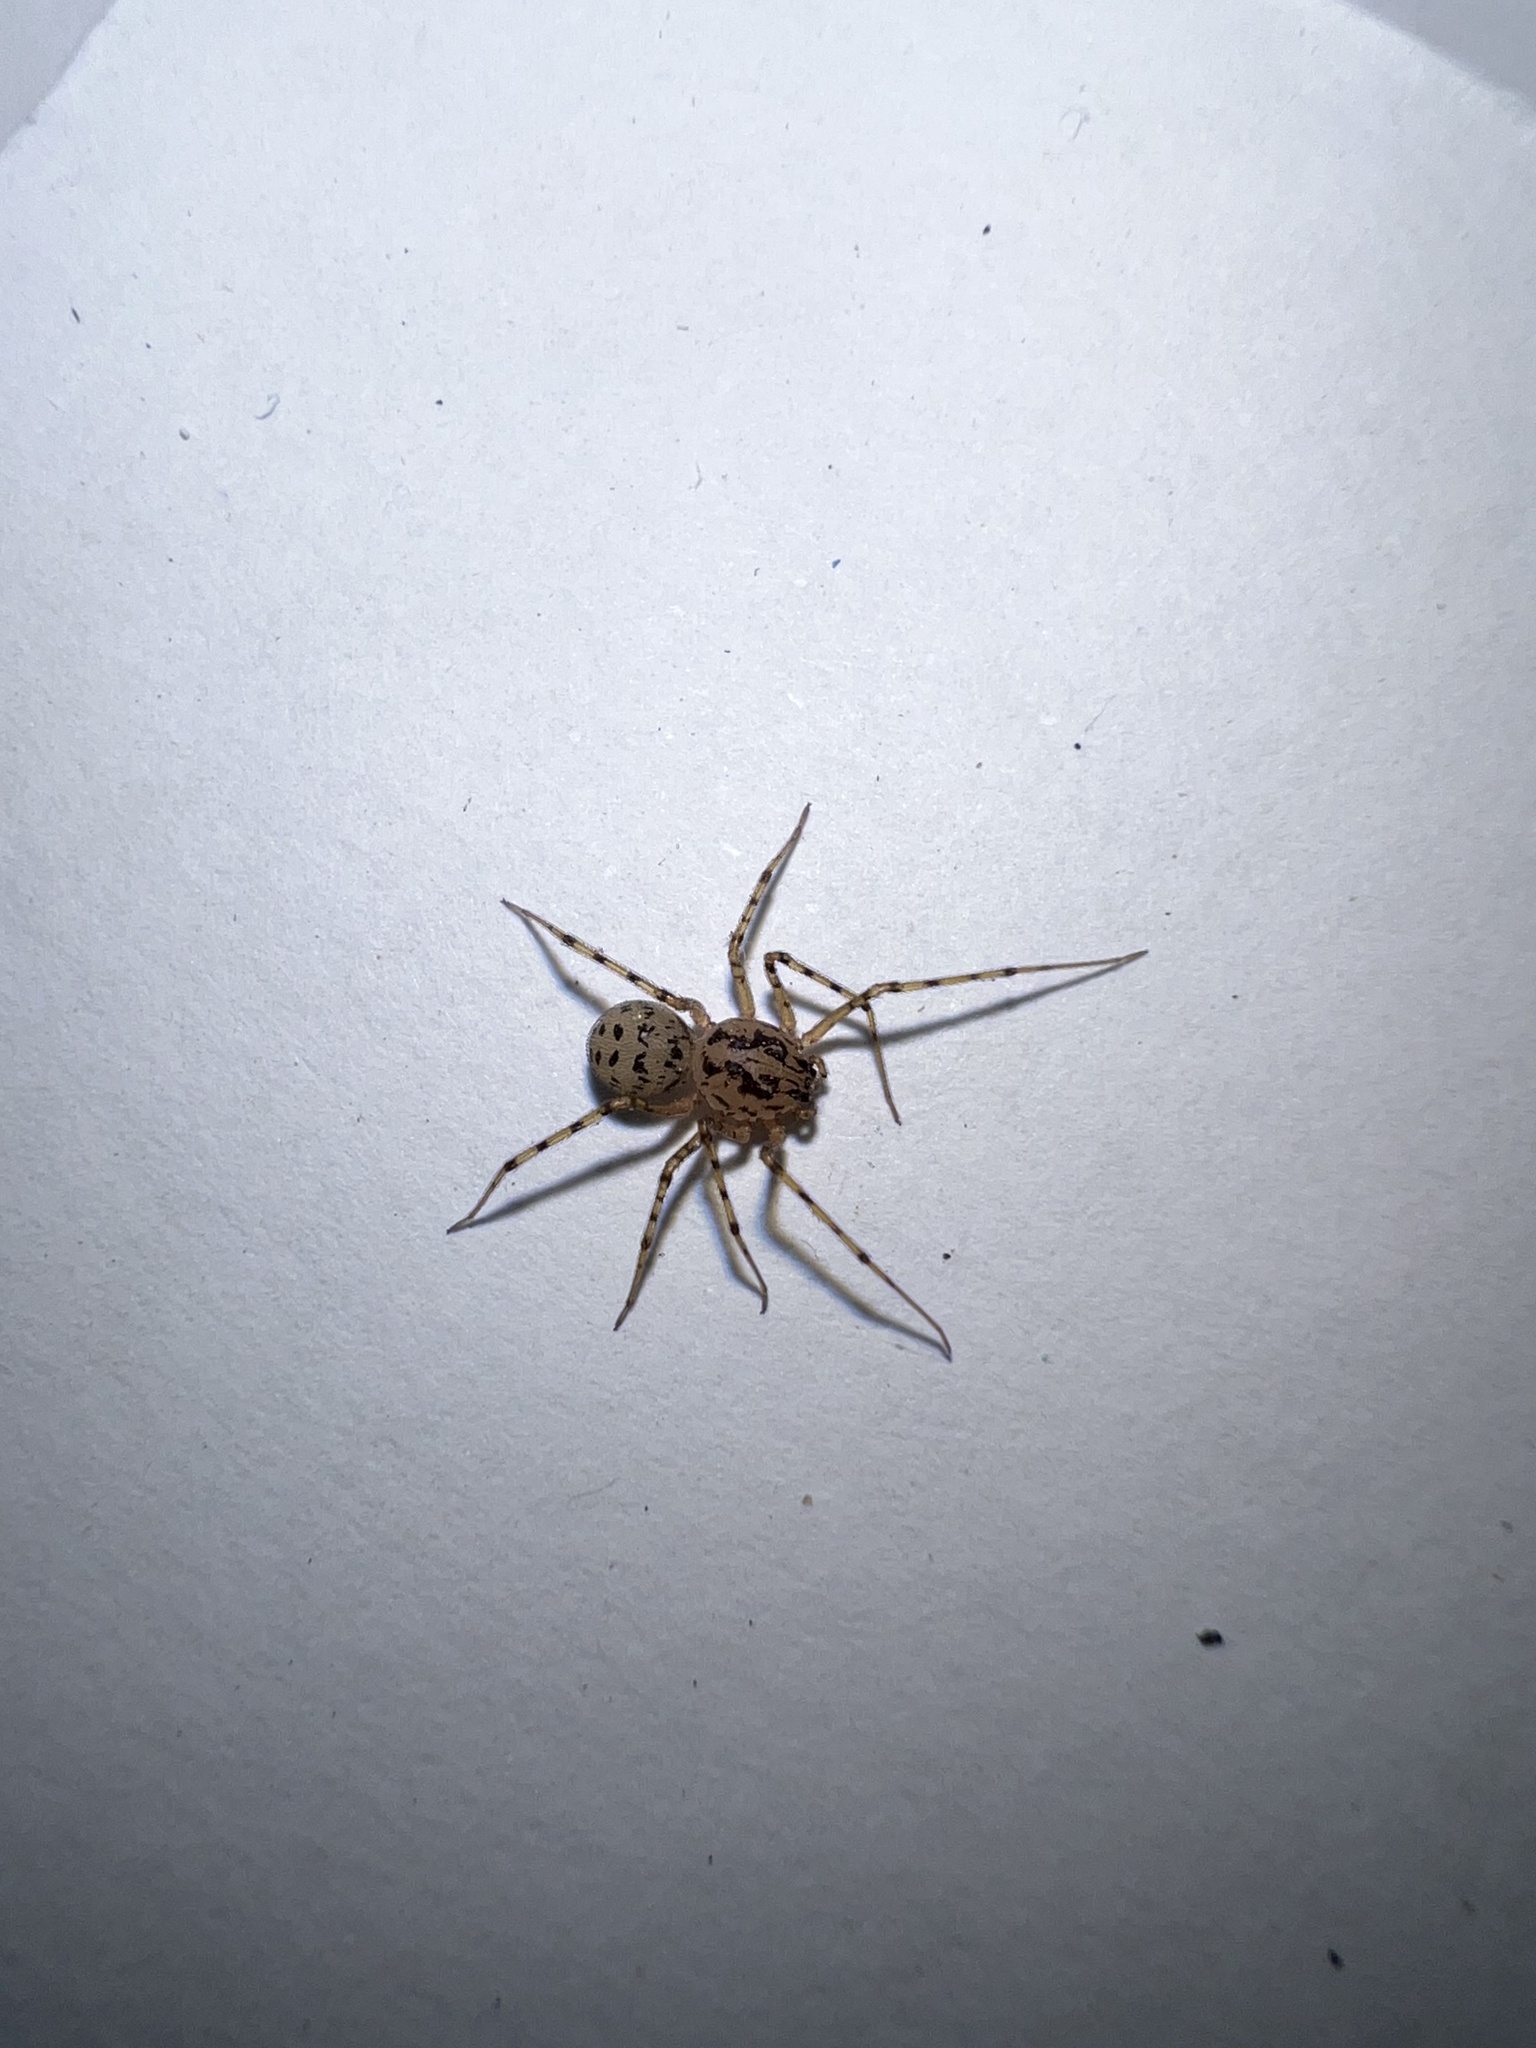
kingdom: Animalia
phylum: Arthropoda
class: Arachnida
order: Araneae
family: Scytodidae
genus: Scytodes
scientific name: Scytodes thoracica
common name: Spitting spider
